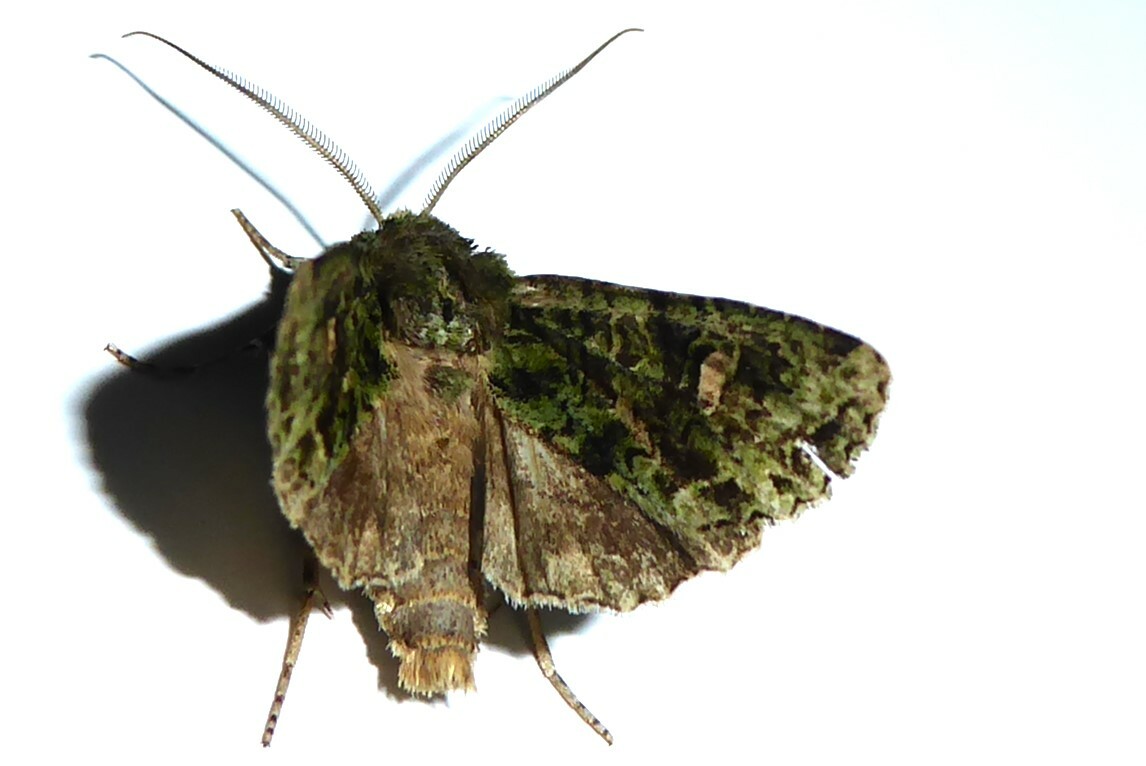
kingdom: Animalia
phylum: Arthropoda
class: Insecta
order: Lepidoptera
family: Noctuidae
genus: Ichneutica
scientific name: Ichneutica
